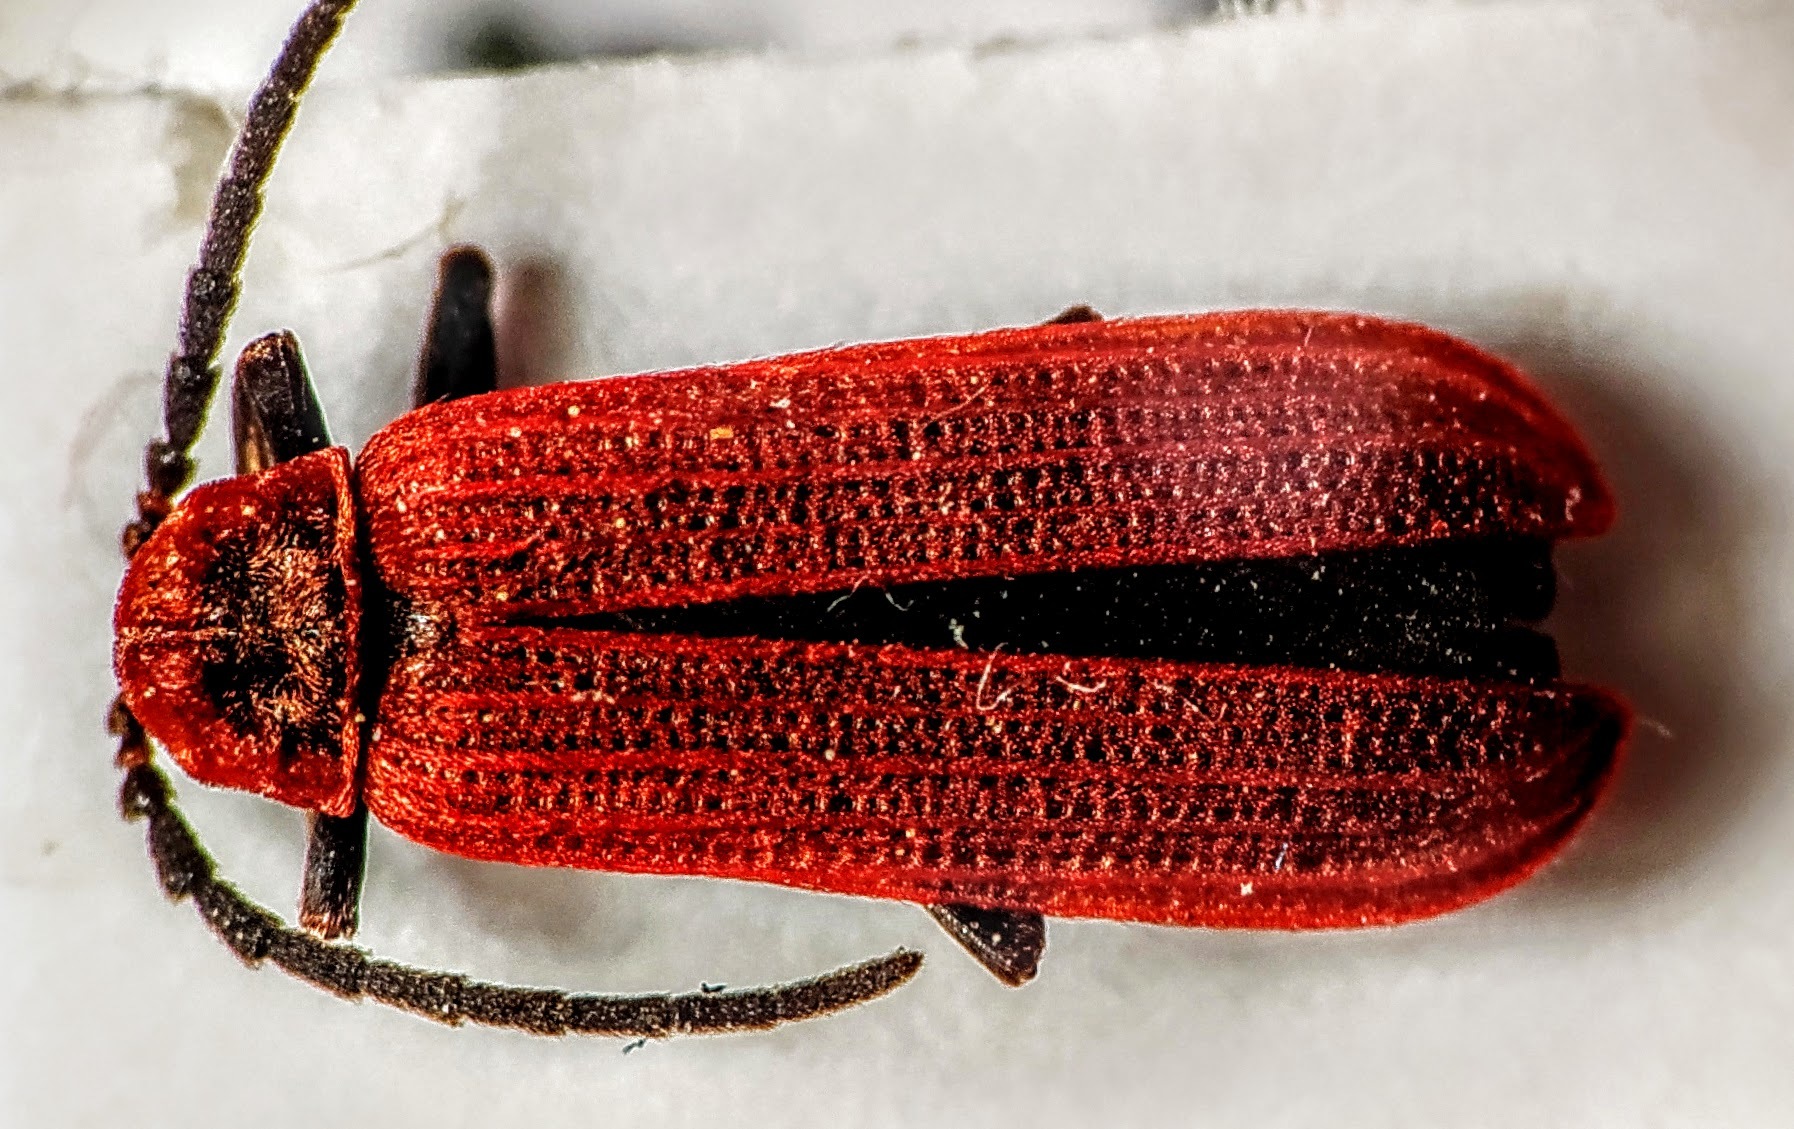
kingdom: Animalia
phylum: Arthropoda
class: Insecta
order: Coleoptera
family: Lycidae
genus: Lopheros
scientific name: Lopheros rubens
